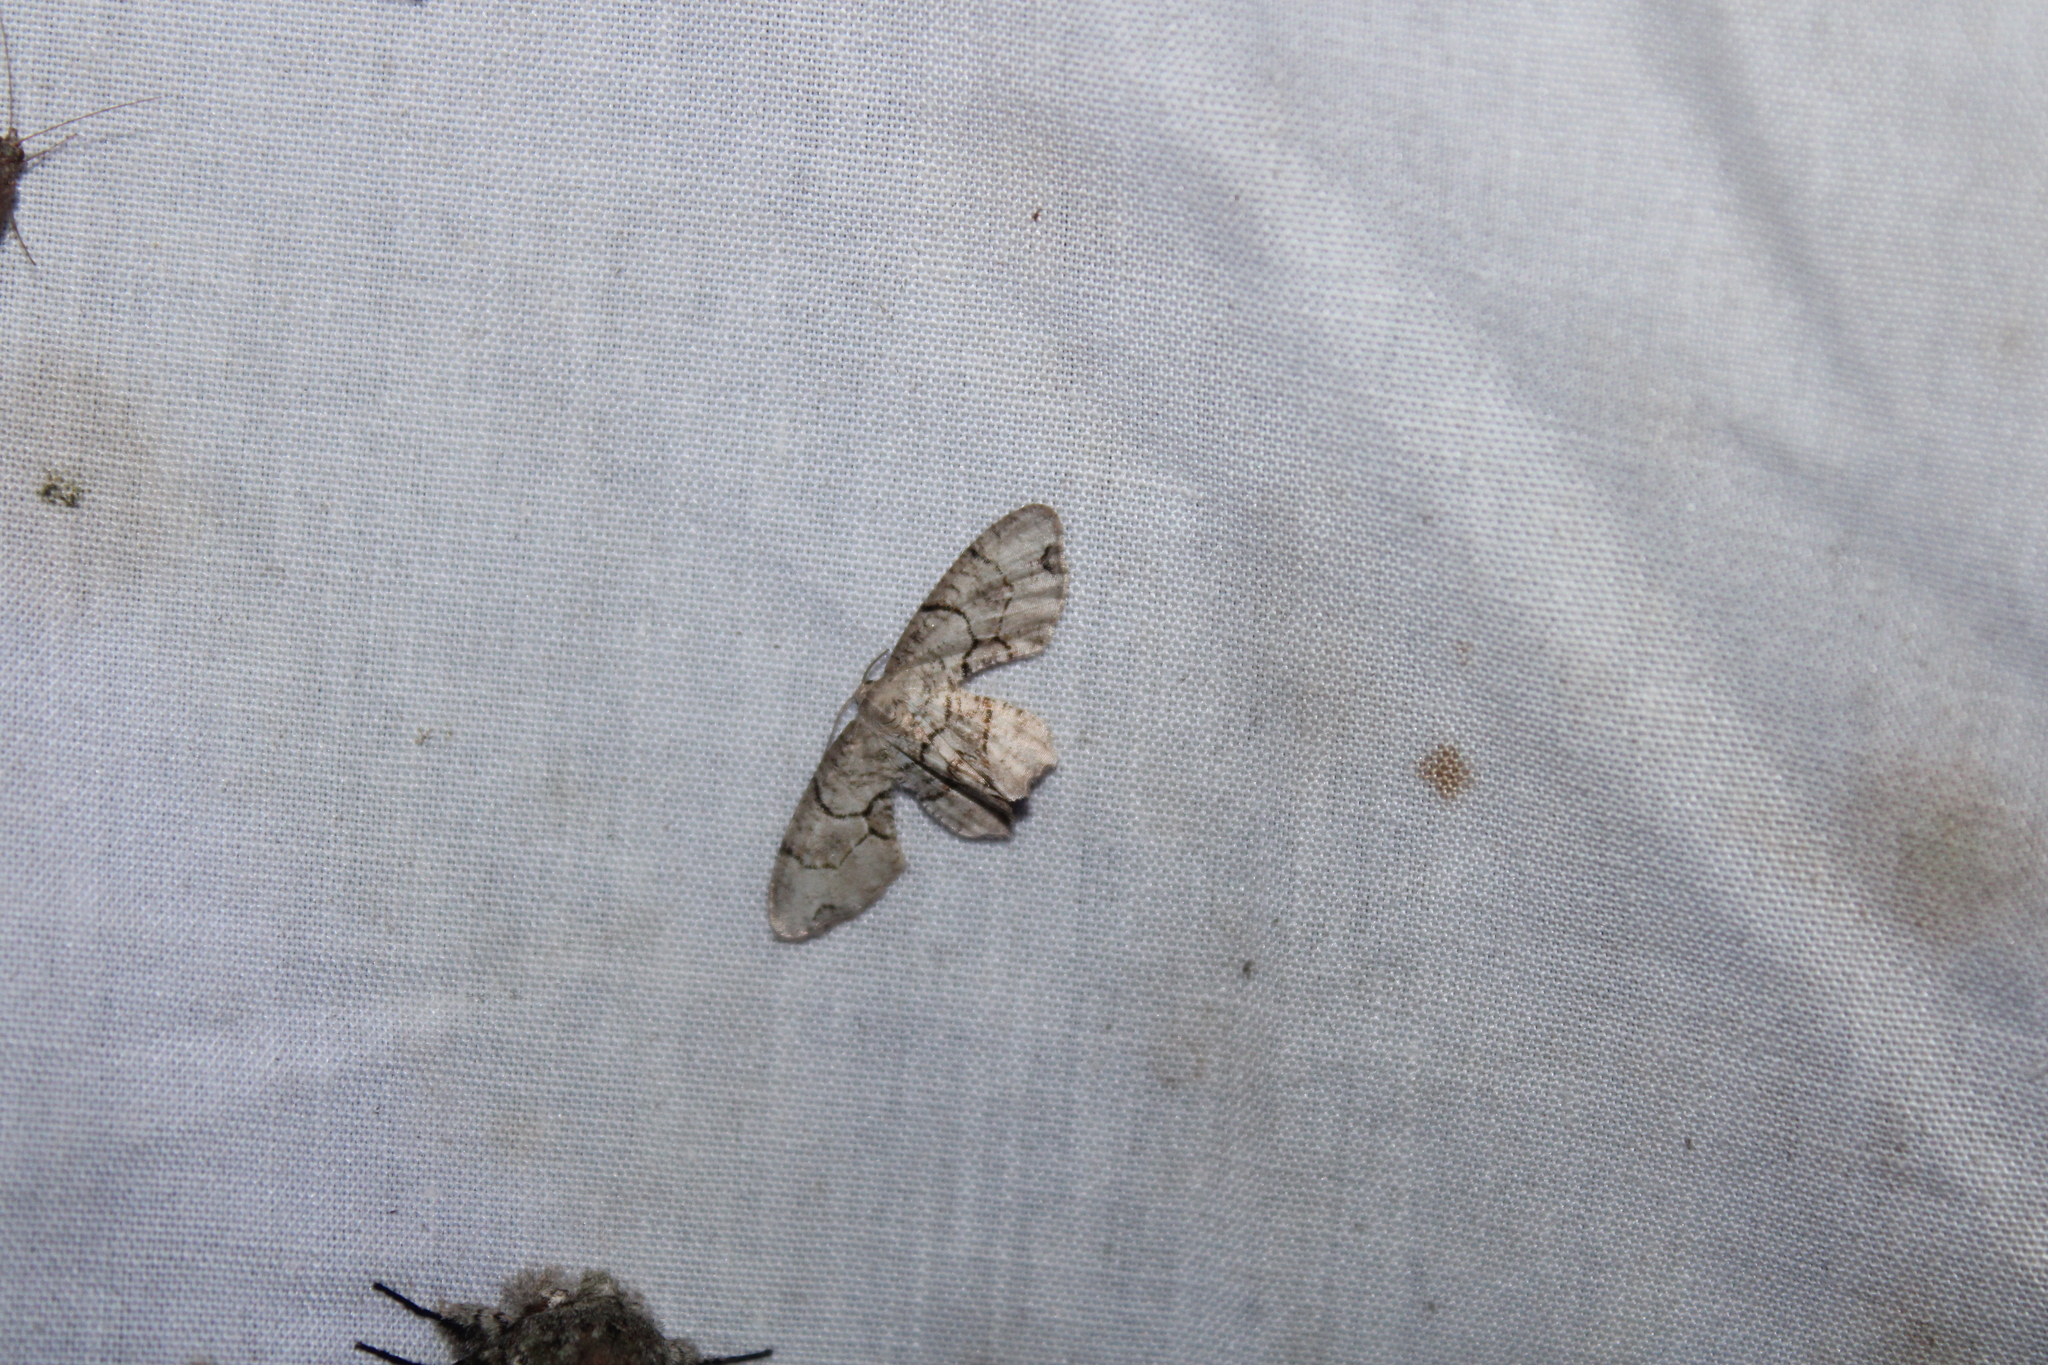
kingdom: Animalia
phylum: Arthropoda
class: Insecta
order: Lepidoptera
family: Uraniidae
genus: Epiplema
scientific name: Epiplema Callizzia amorata
